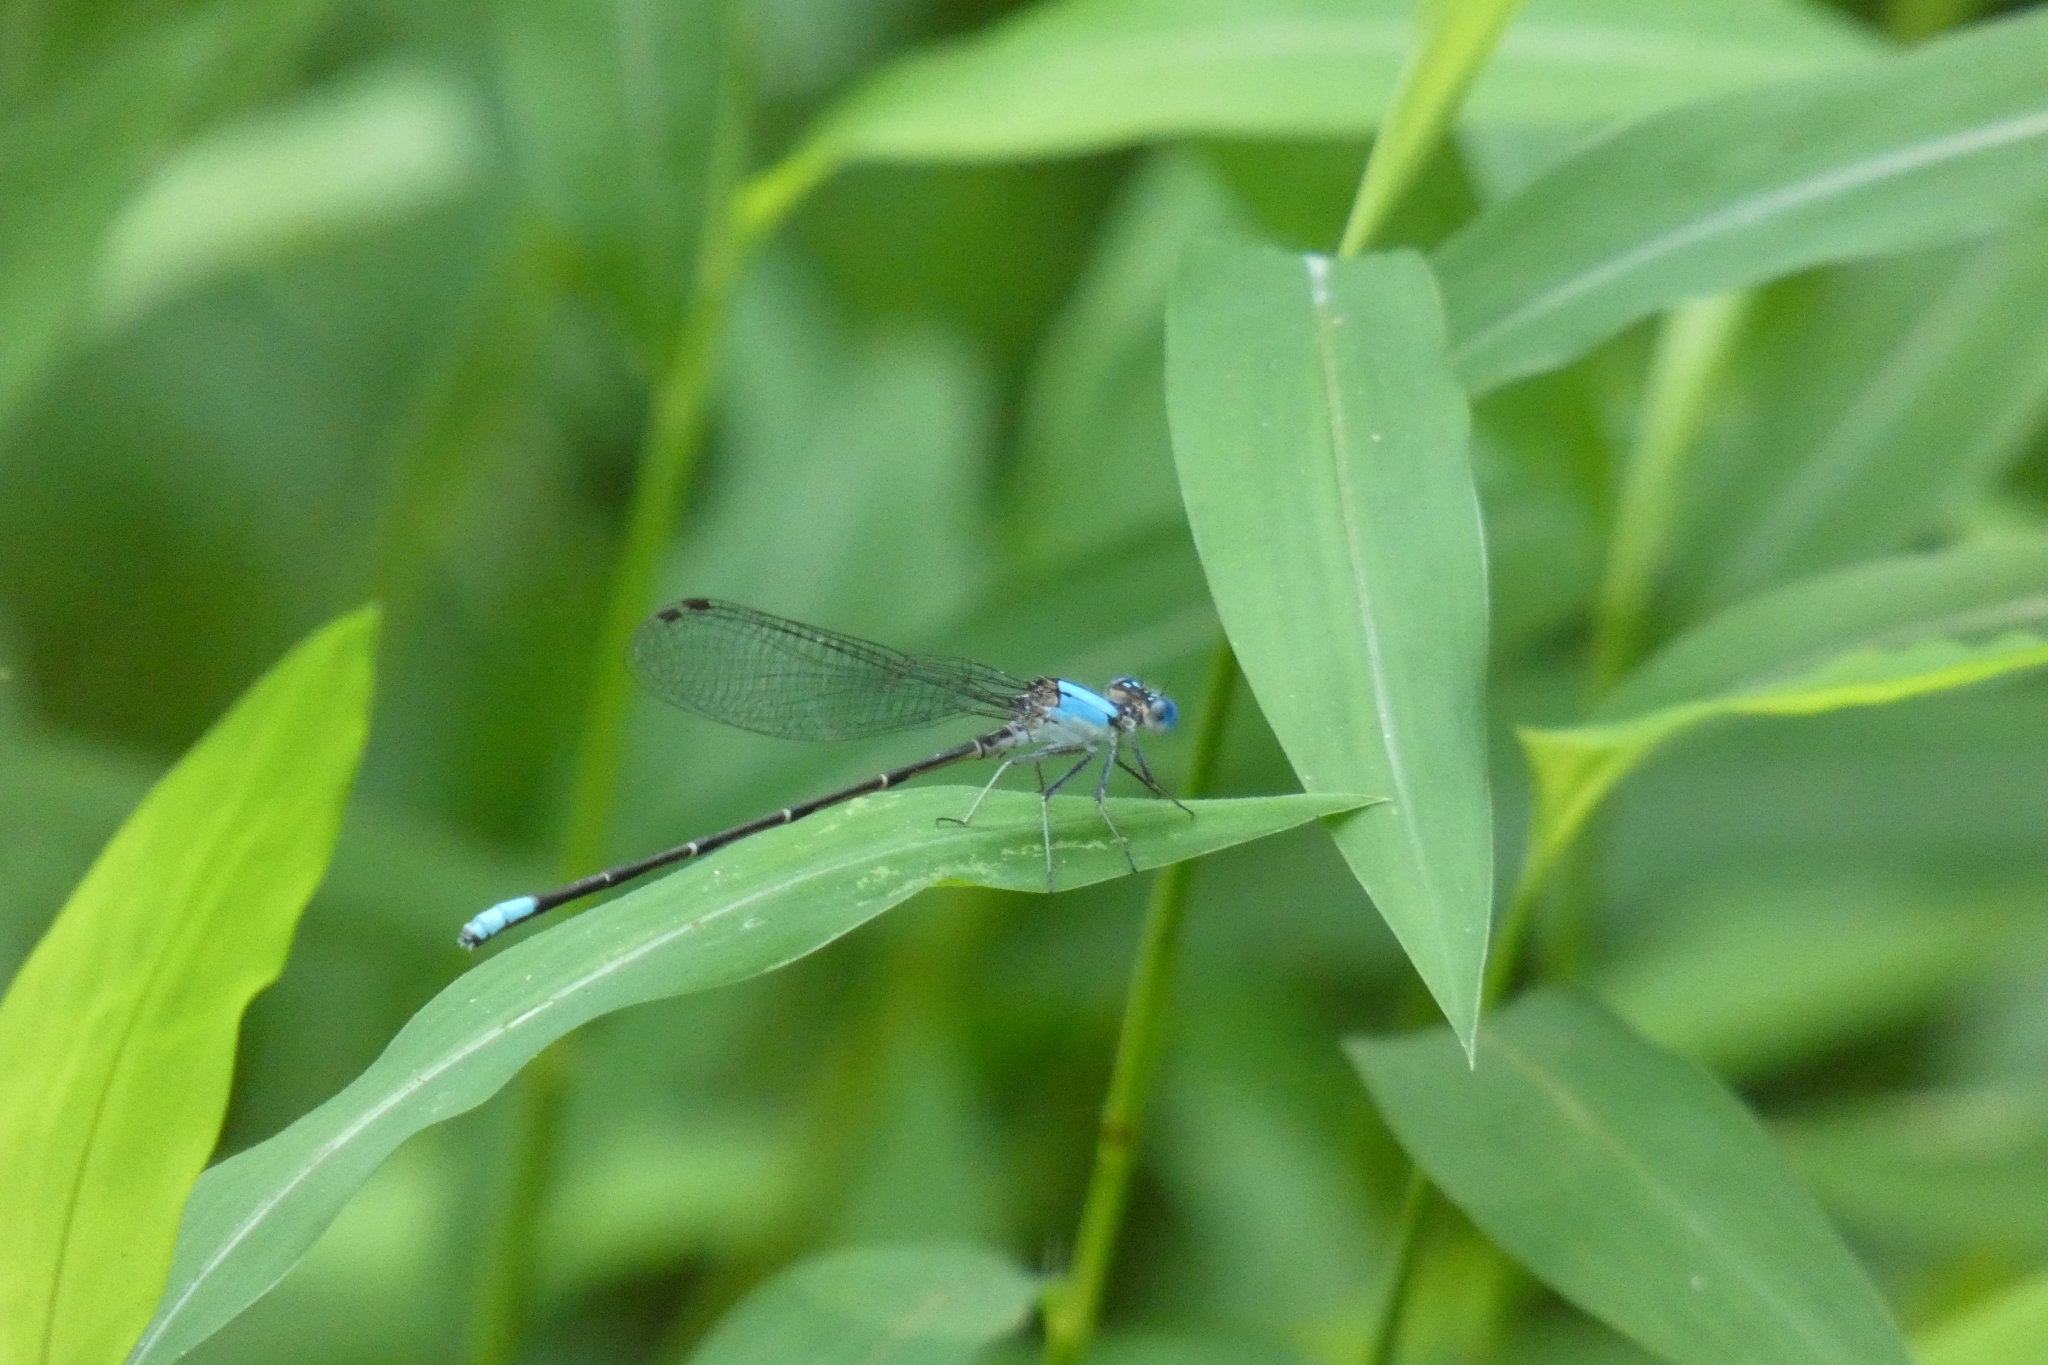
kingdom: Animalia
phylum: Arthropoda
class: Insecta
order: Odonata
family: Coenagrionidae
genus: Argia
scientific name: Argia apicalis
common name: Blue-fronted dancer
